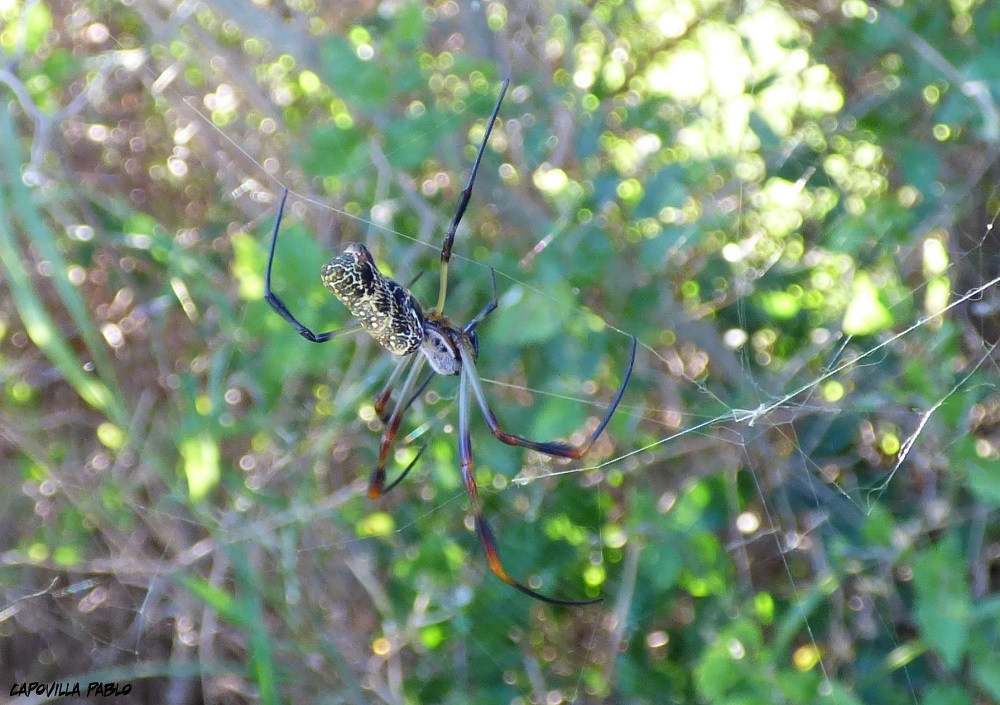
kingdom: Animalia
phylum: Arthropoda
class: Arachnida
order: Araneae
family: Araneidae
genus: Trichonephila
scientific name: Trichonephila sexpunctata
